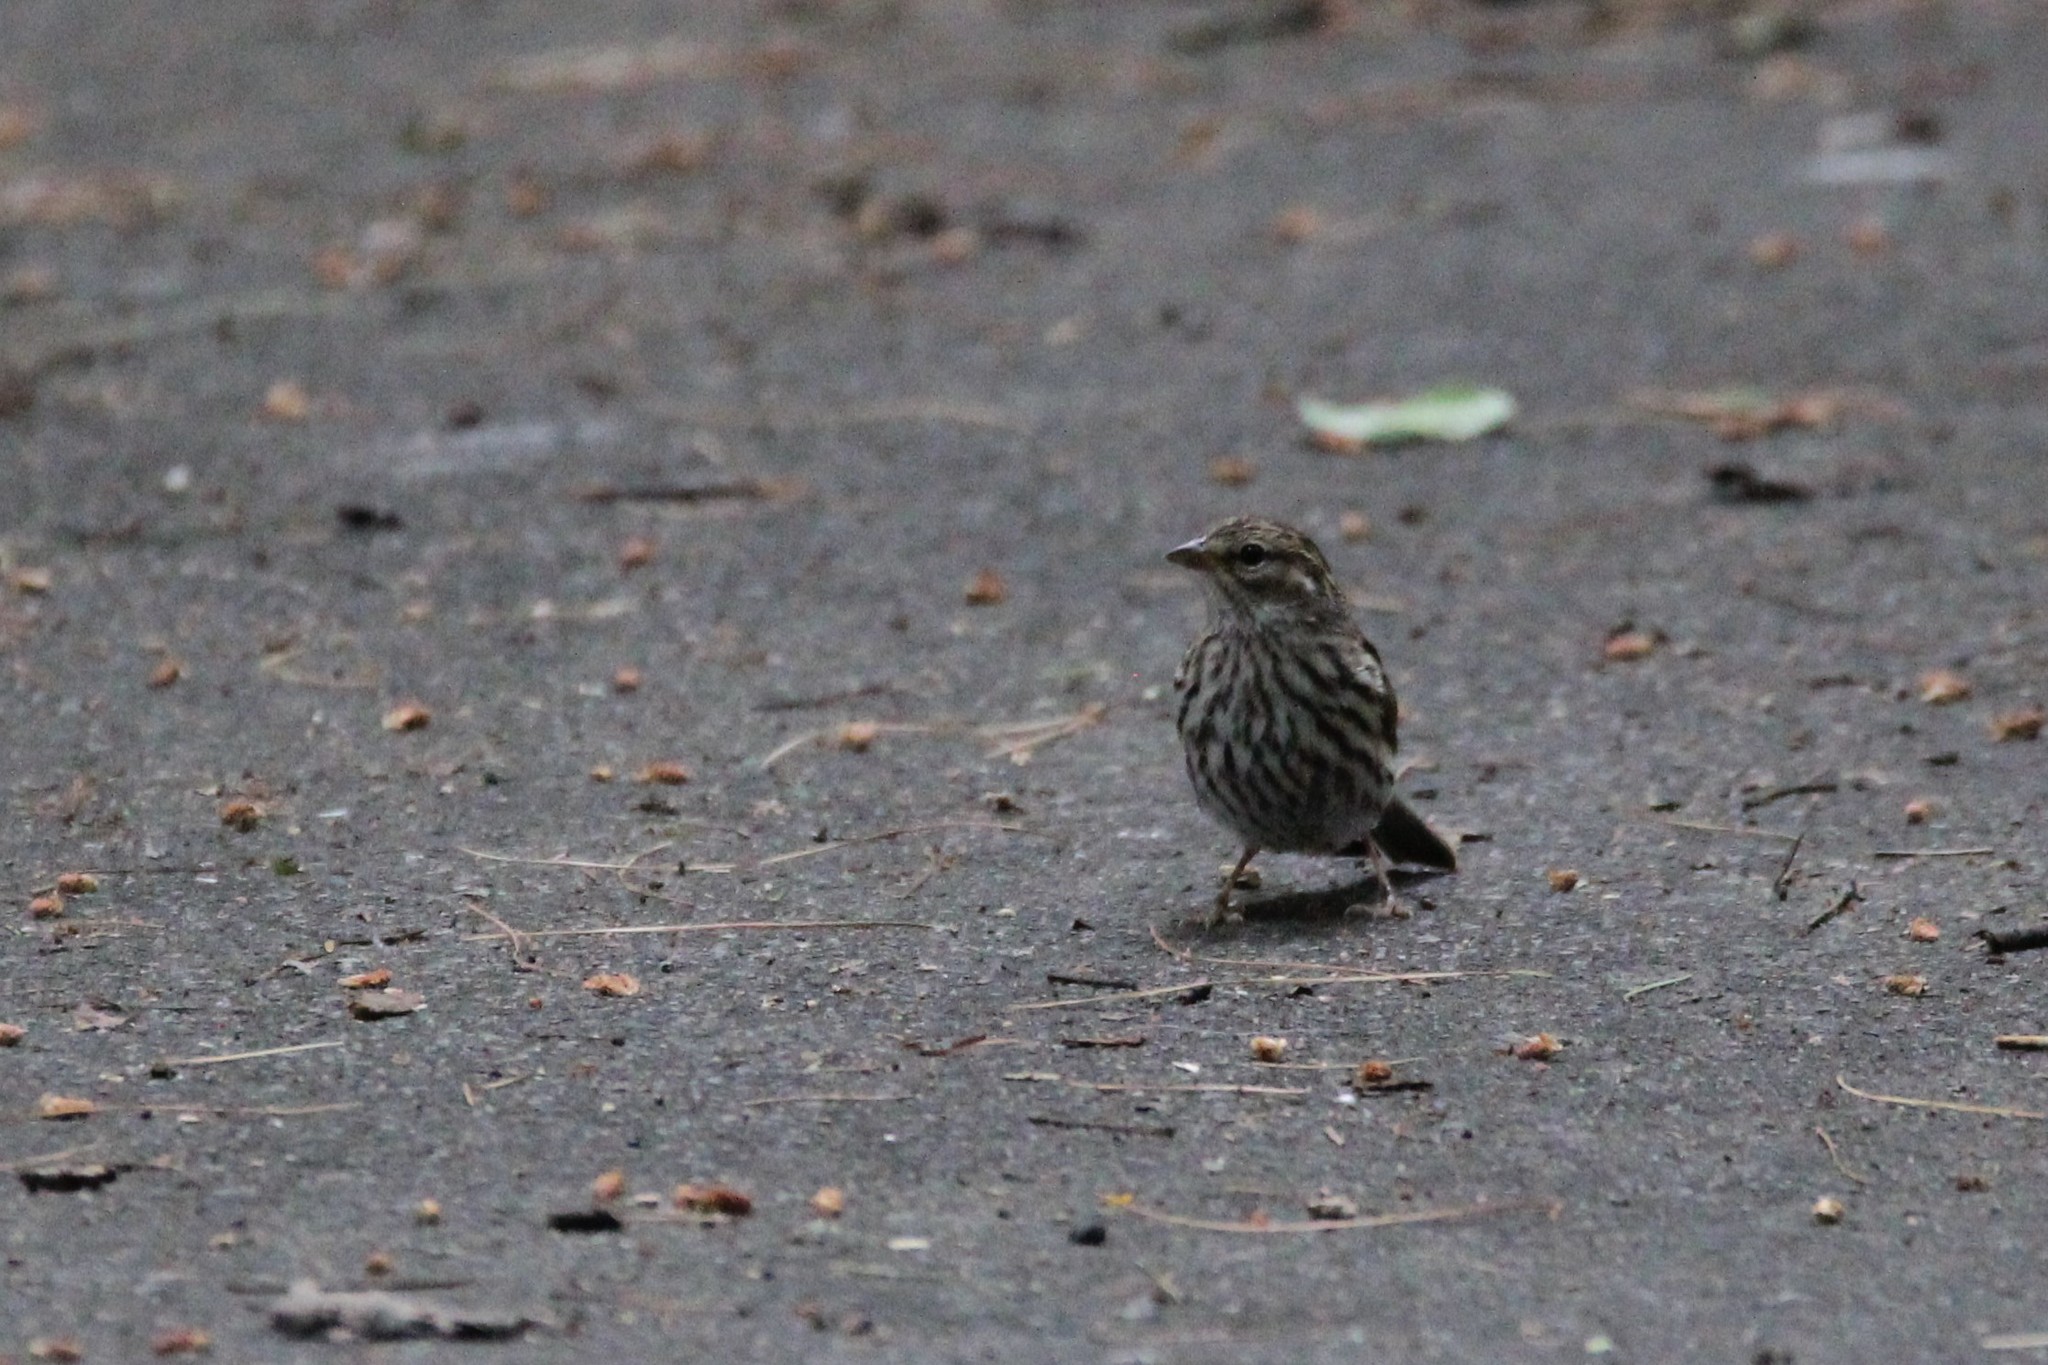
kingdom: Animalia
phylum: Chordata
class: Aves
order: Passeriformes
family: Passerellidae
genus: Spizella
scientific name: Spizella passerina
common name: Chipping sparrow
